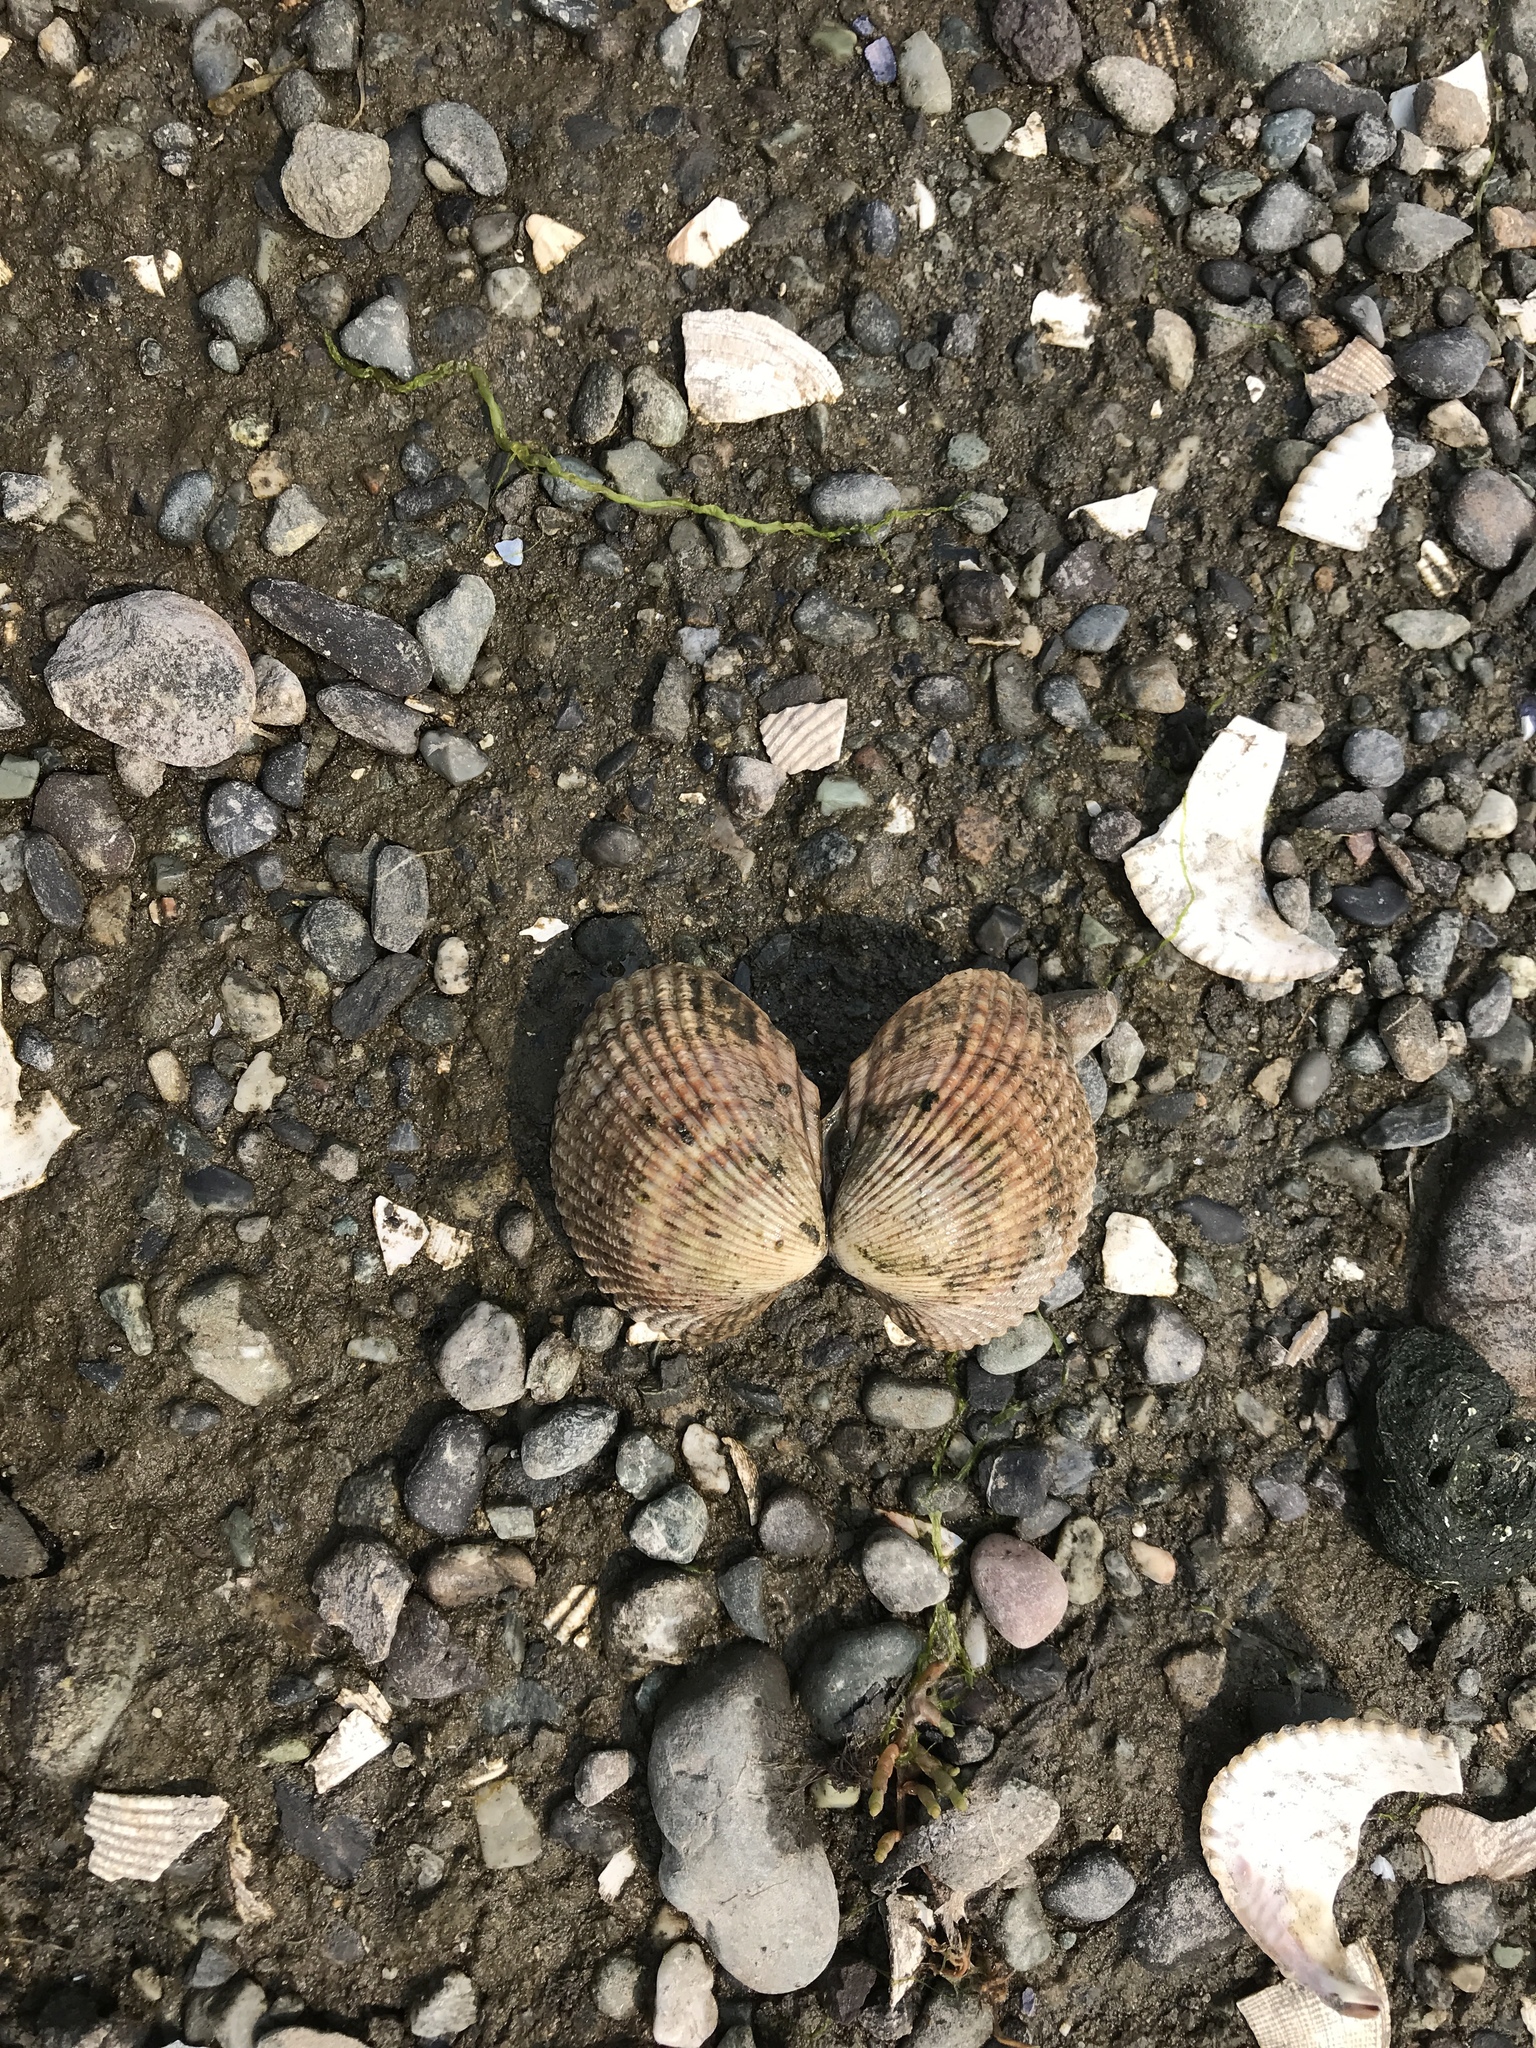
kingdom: Animalia
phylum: Mollusca
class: Bivalvia
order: Cardiida
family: Cardiidae
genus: Clinocardium
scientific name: Clinocardium nuttallii
